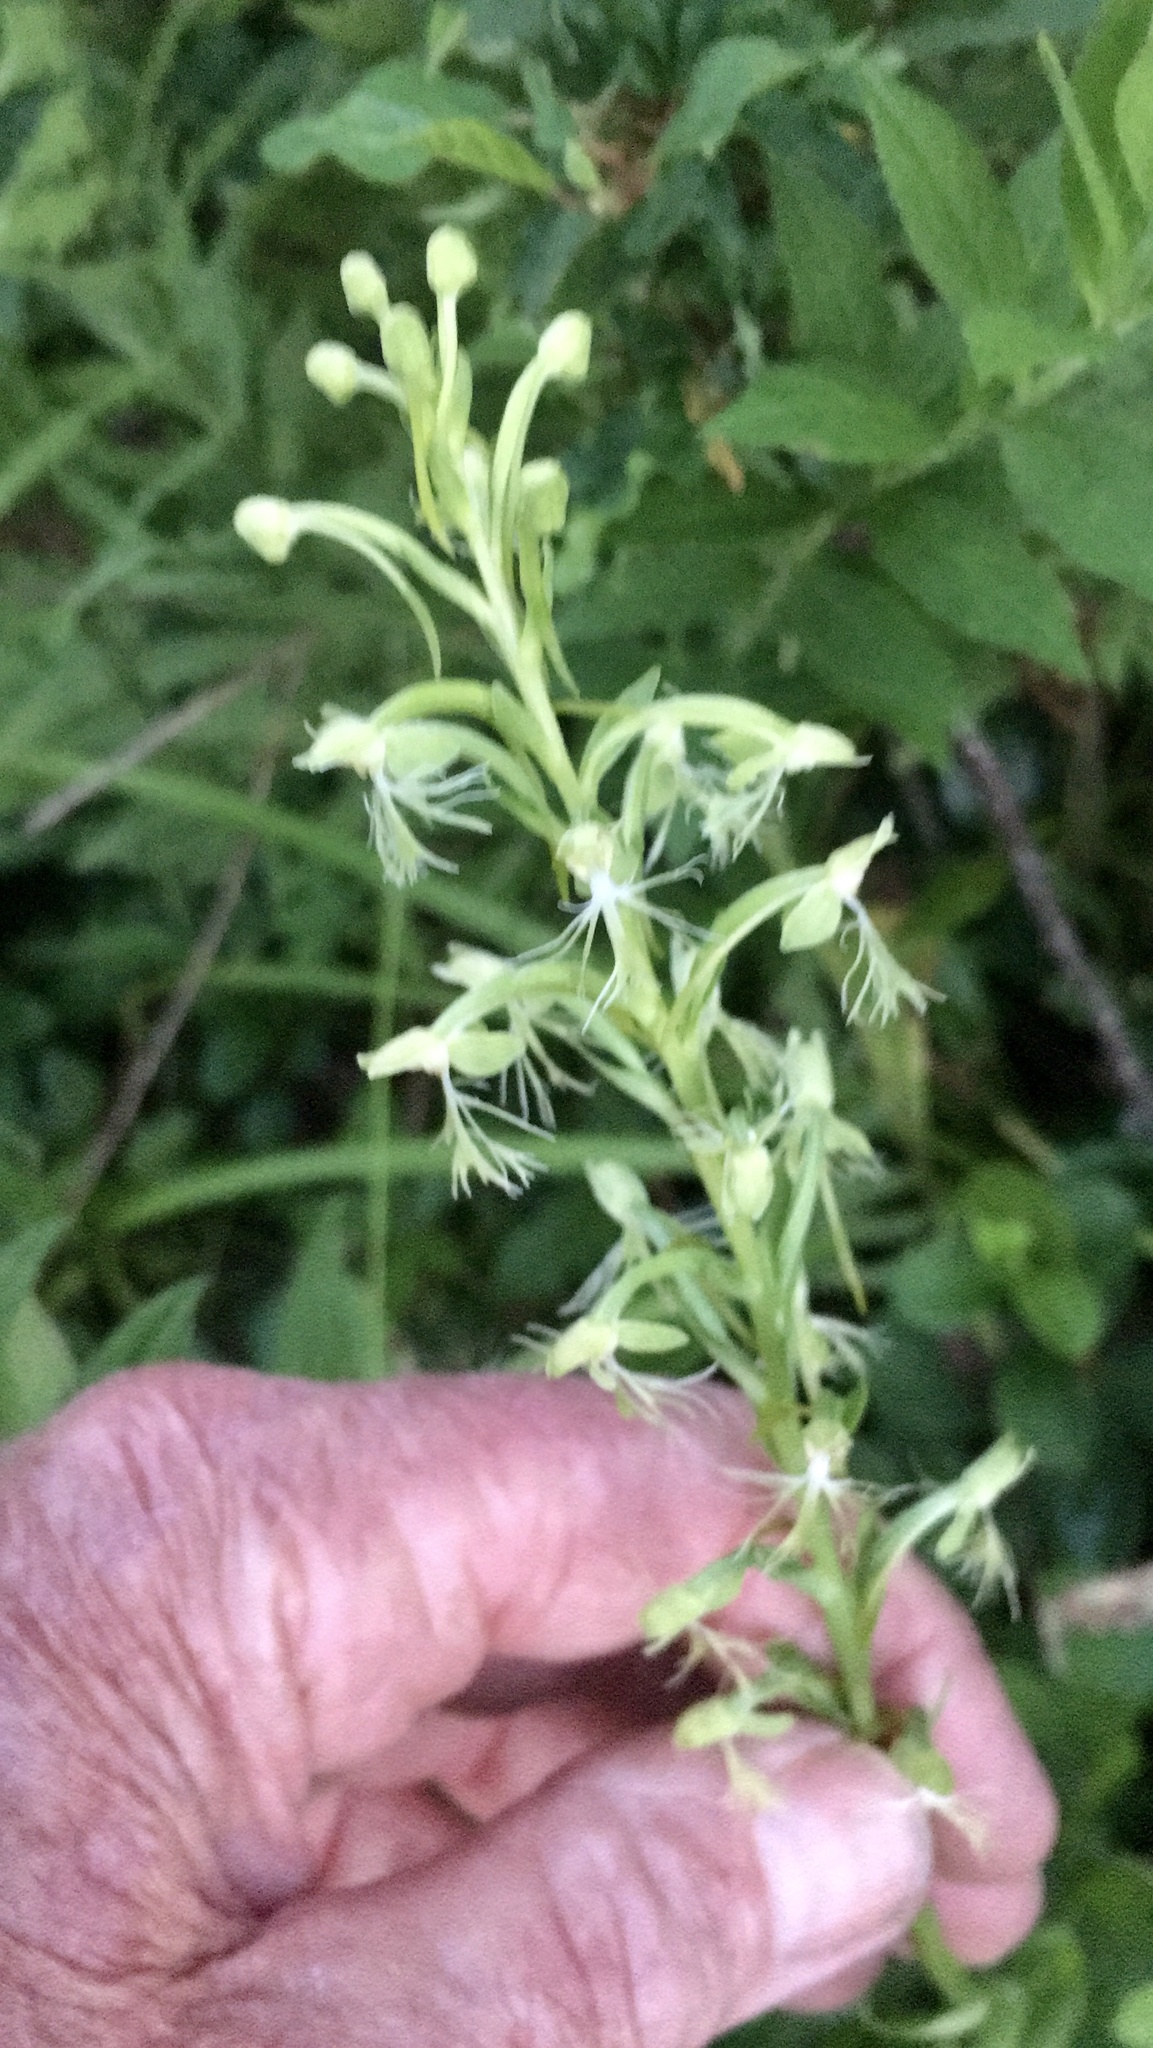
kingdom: Plantae
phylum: Tracheophyta
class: Liliopsida
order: Asparagales
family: Orchidaceae
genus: Platanthera
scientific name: Platanthera lacera
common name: Green fringed orchid
